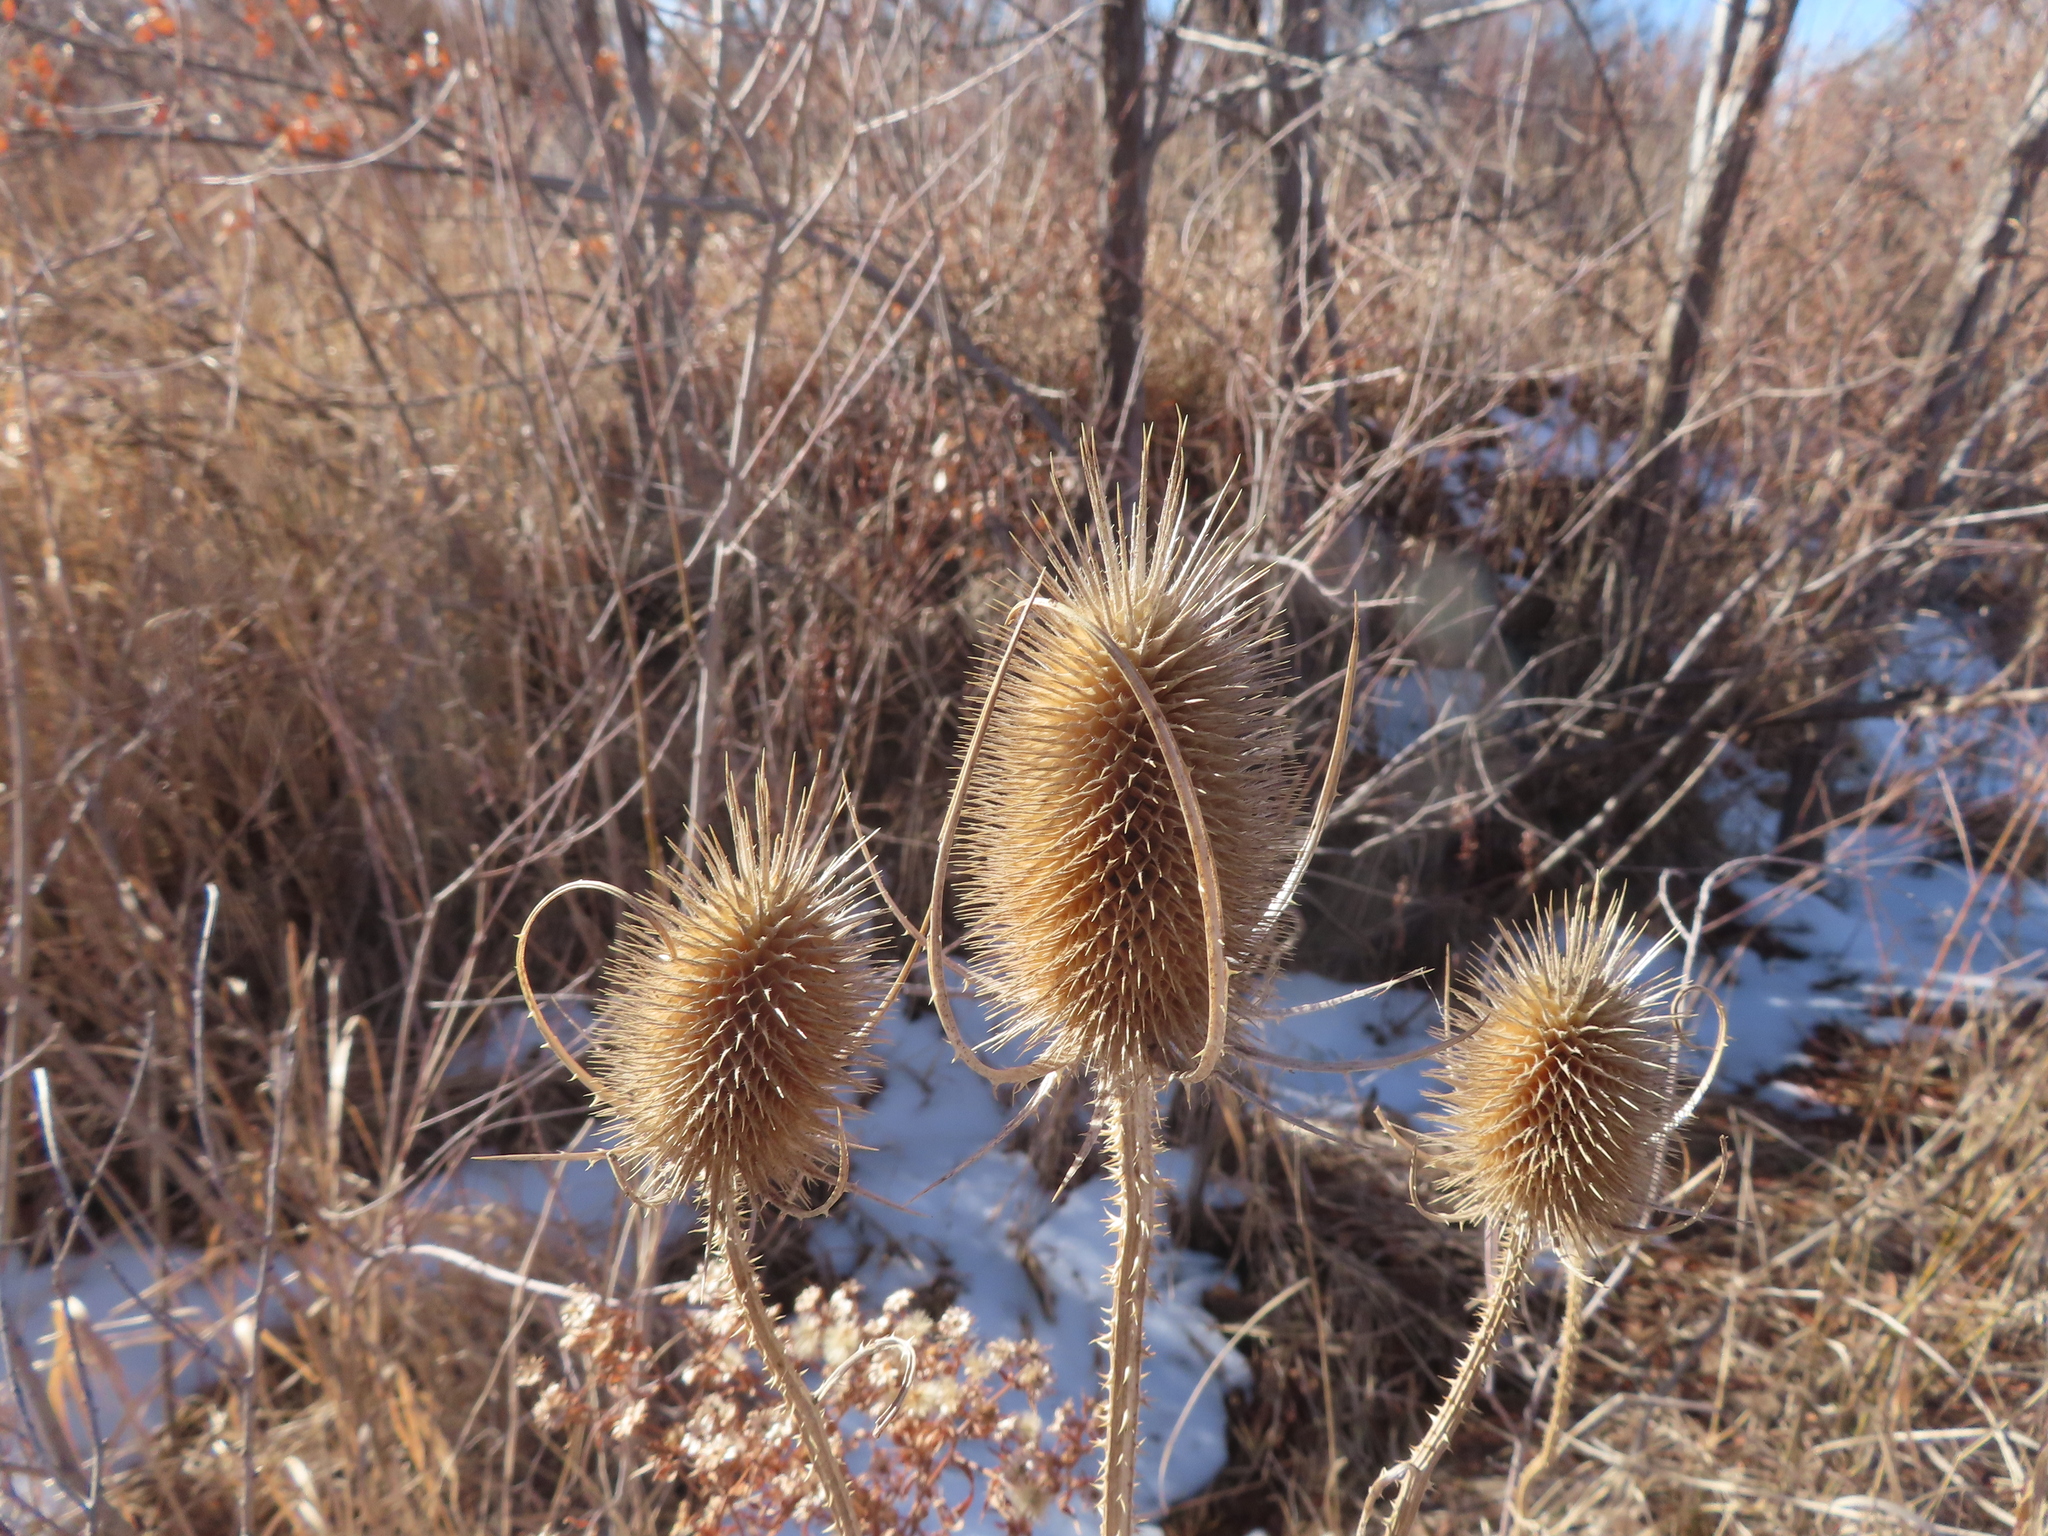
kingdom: Plantae
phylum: Tracheophyta
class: Magnoliopsida
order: Dipsacales
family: Caprifoliaceae
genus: Dipsacus
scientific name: Dipsacus fullonum
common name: Teasel
